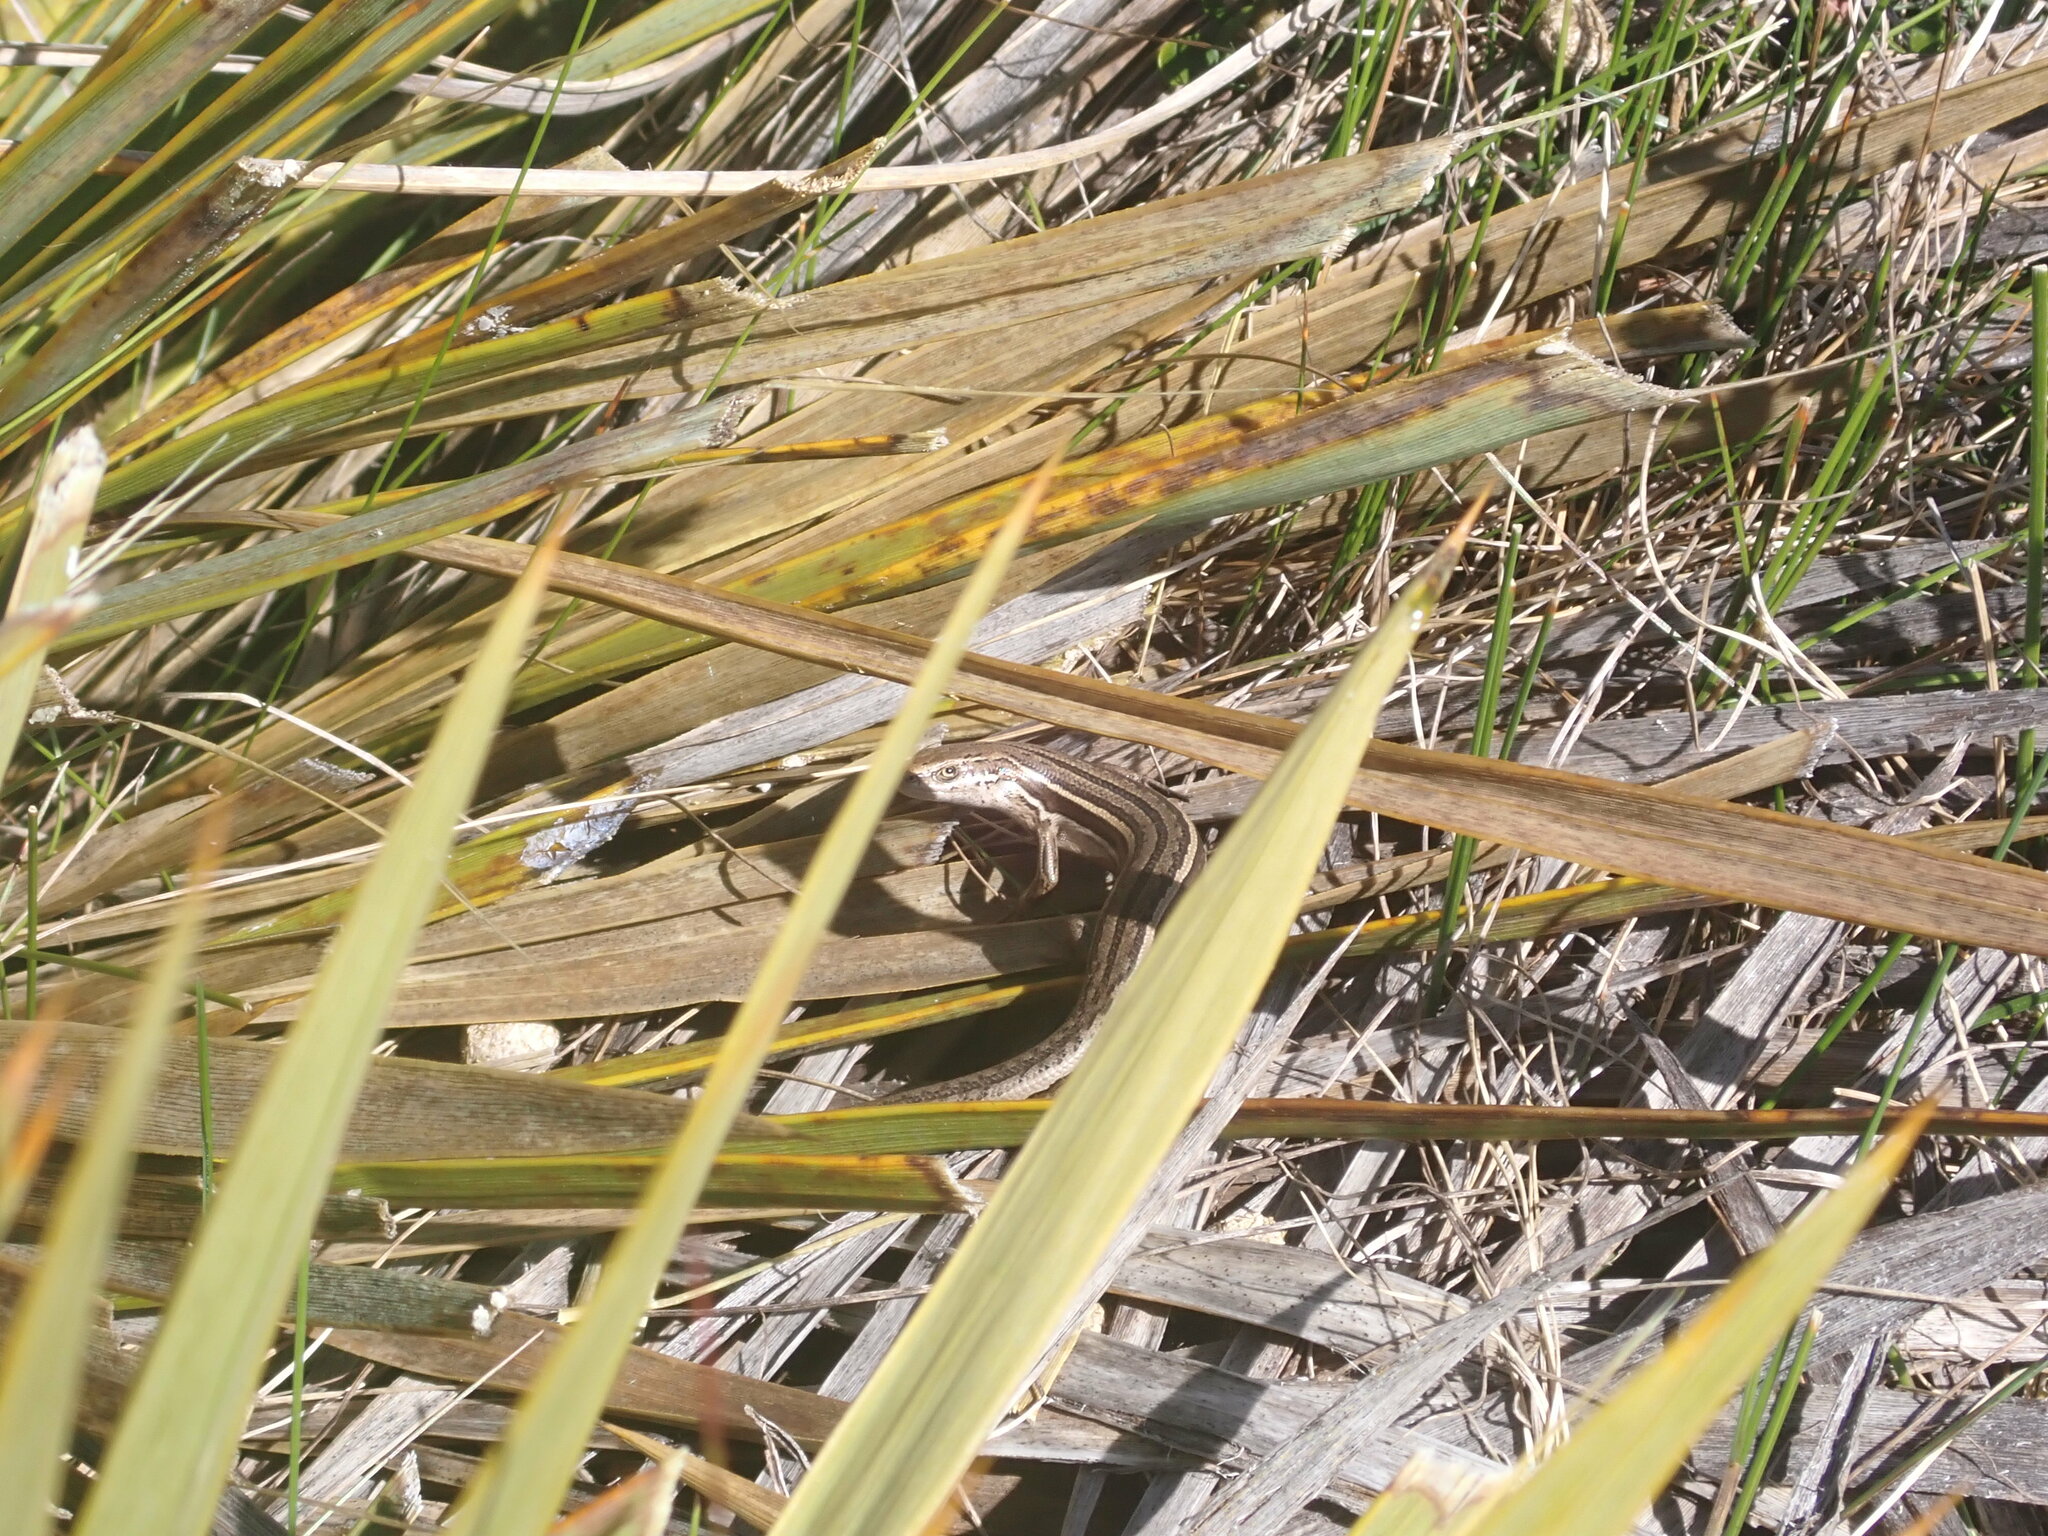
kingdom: Animalia
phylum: Chordata
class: Squamata
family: Scincidae
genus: Oligosoma
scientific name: Oligosoma maccanni
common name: Mccann’s skink
